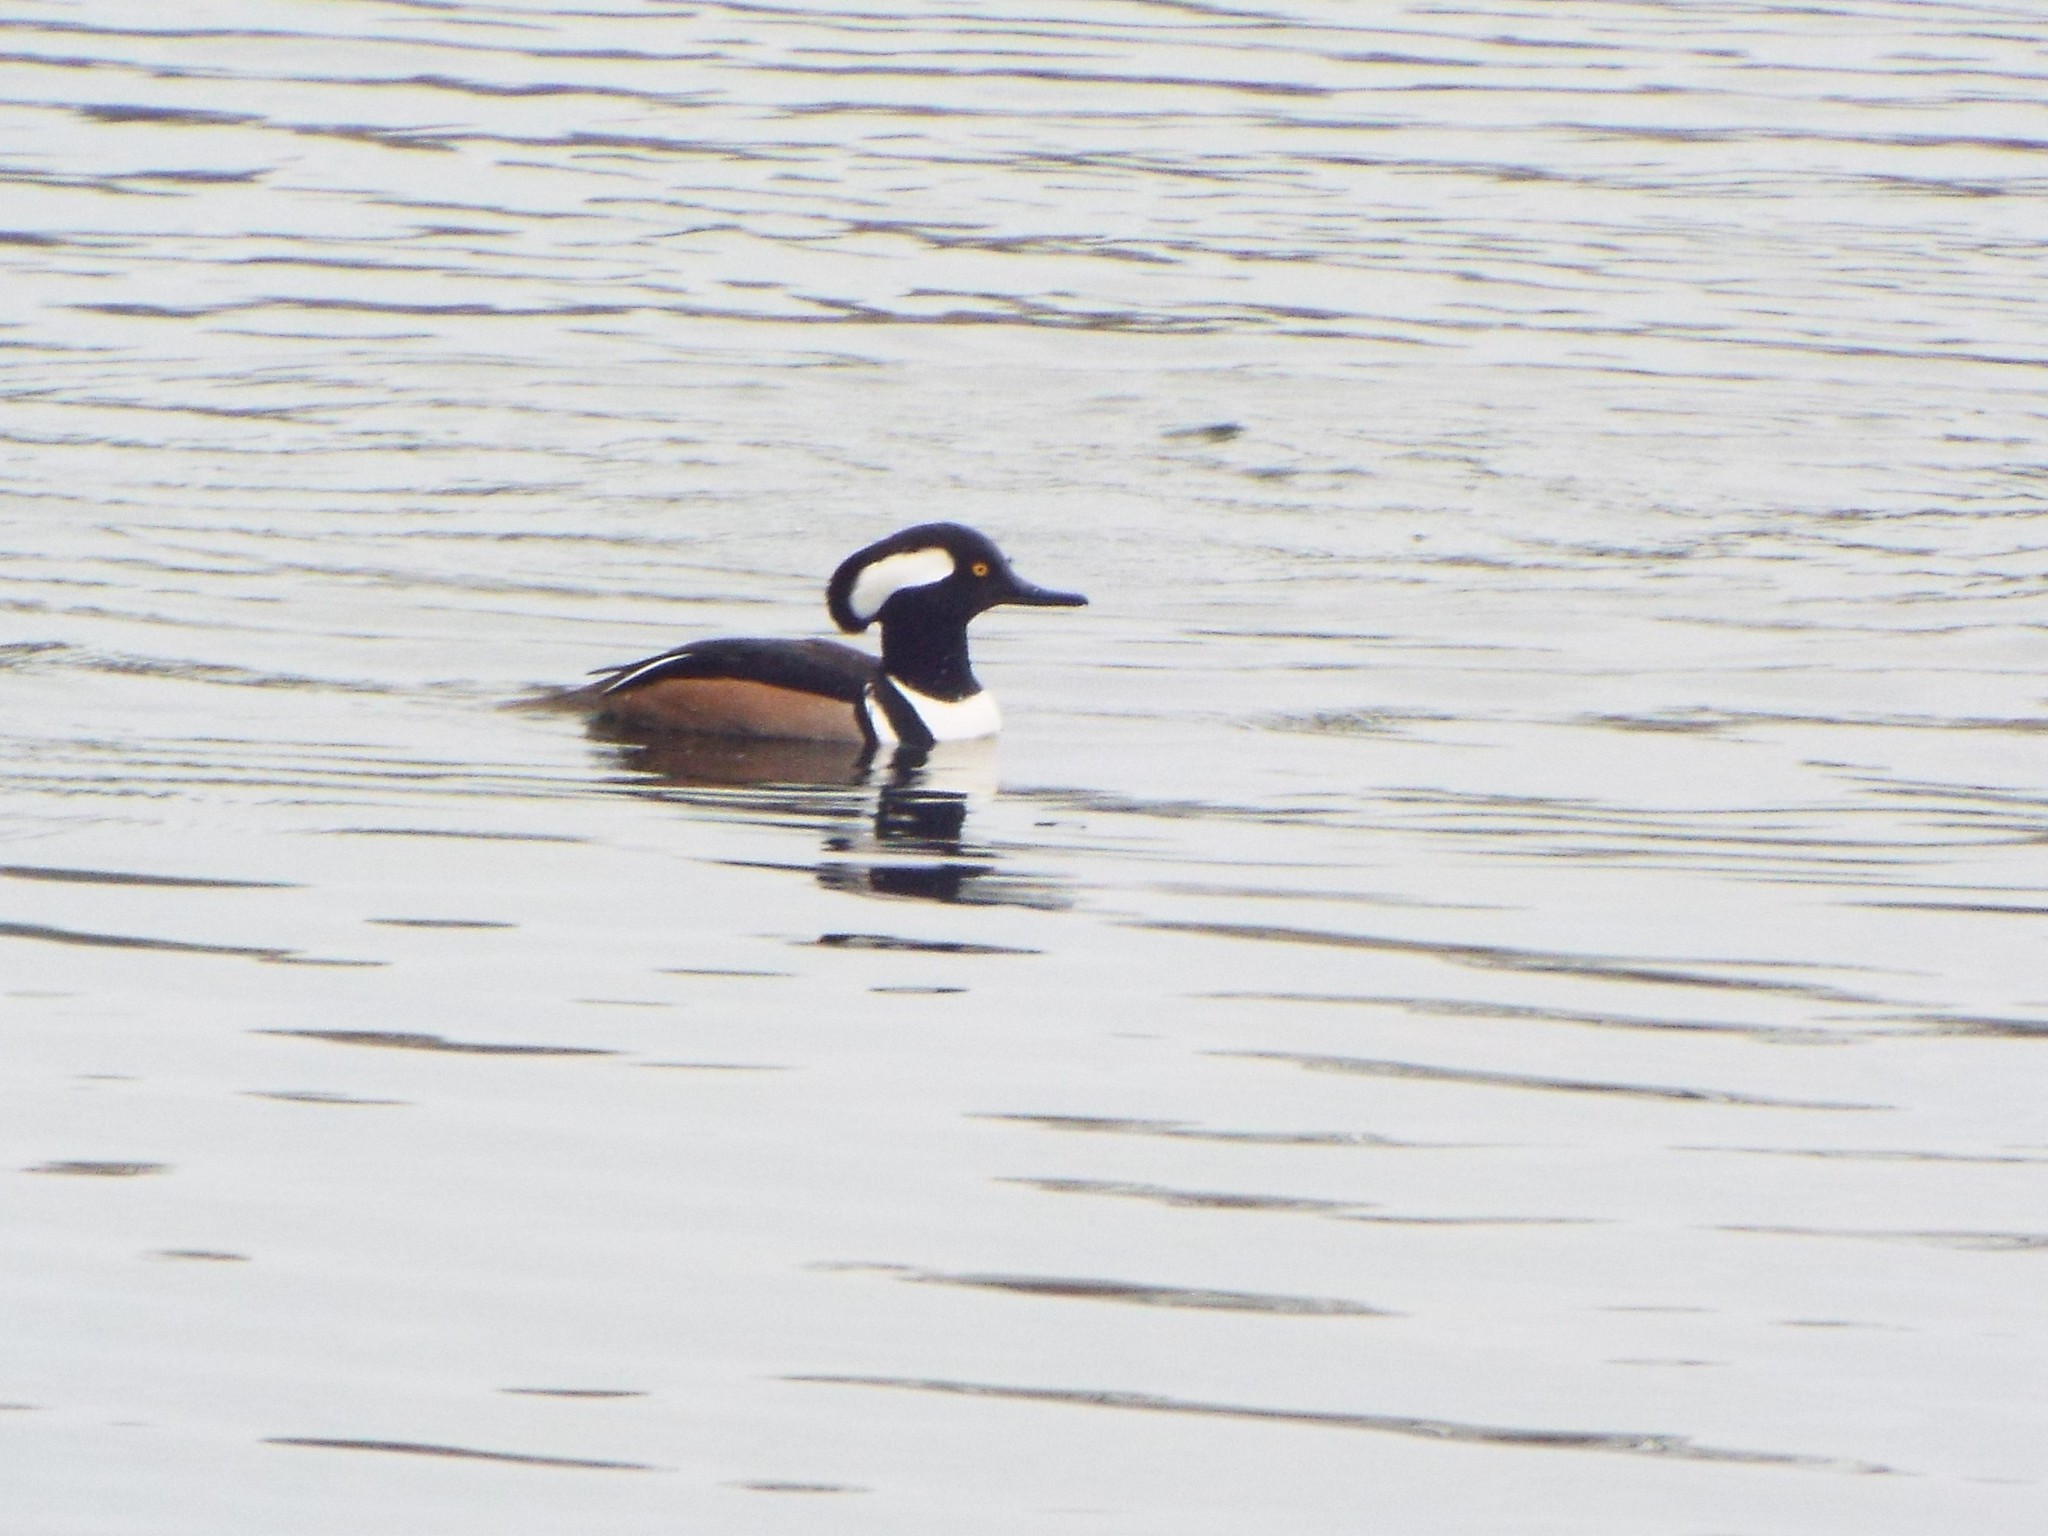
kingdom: Animalia
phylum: Chordata
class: Aves
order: Anseriformes
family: Anatidae
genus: Lophodytes
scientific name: Lophodytes cucullatus
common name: Hooded merganser
